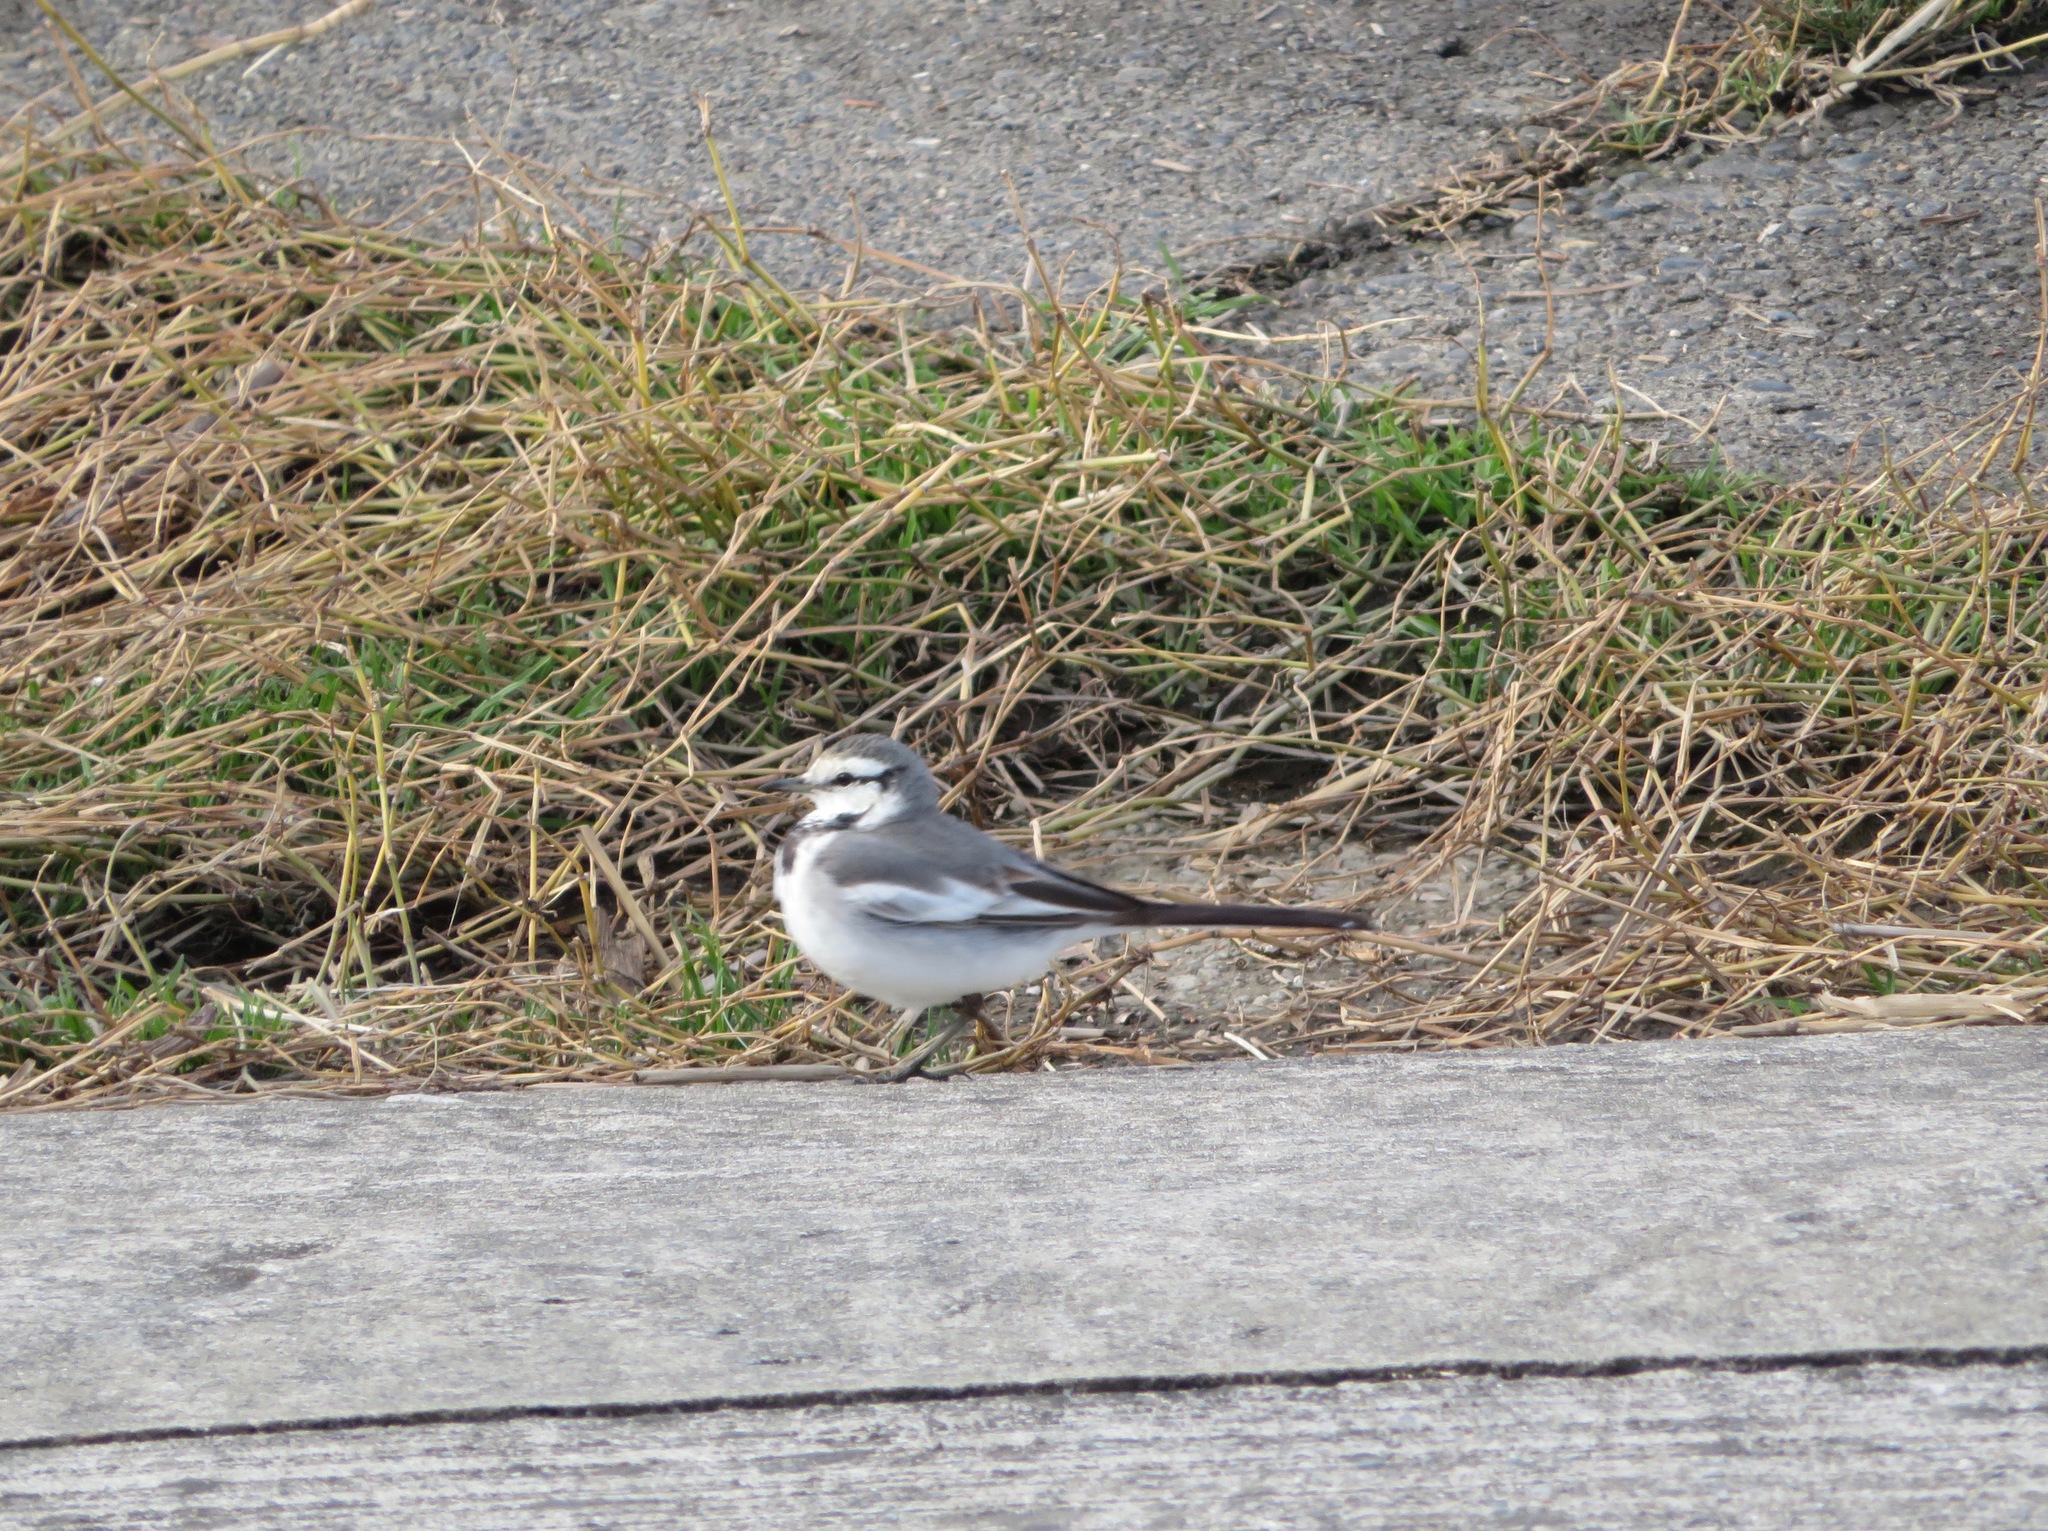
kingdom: Animalia
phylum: Chordata
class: Aves
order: Passeriformes
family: Motacillidae
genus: Motacilla
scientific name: Motacilla alba
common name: White wagtail
